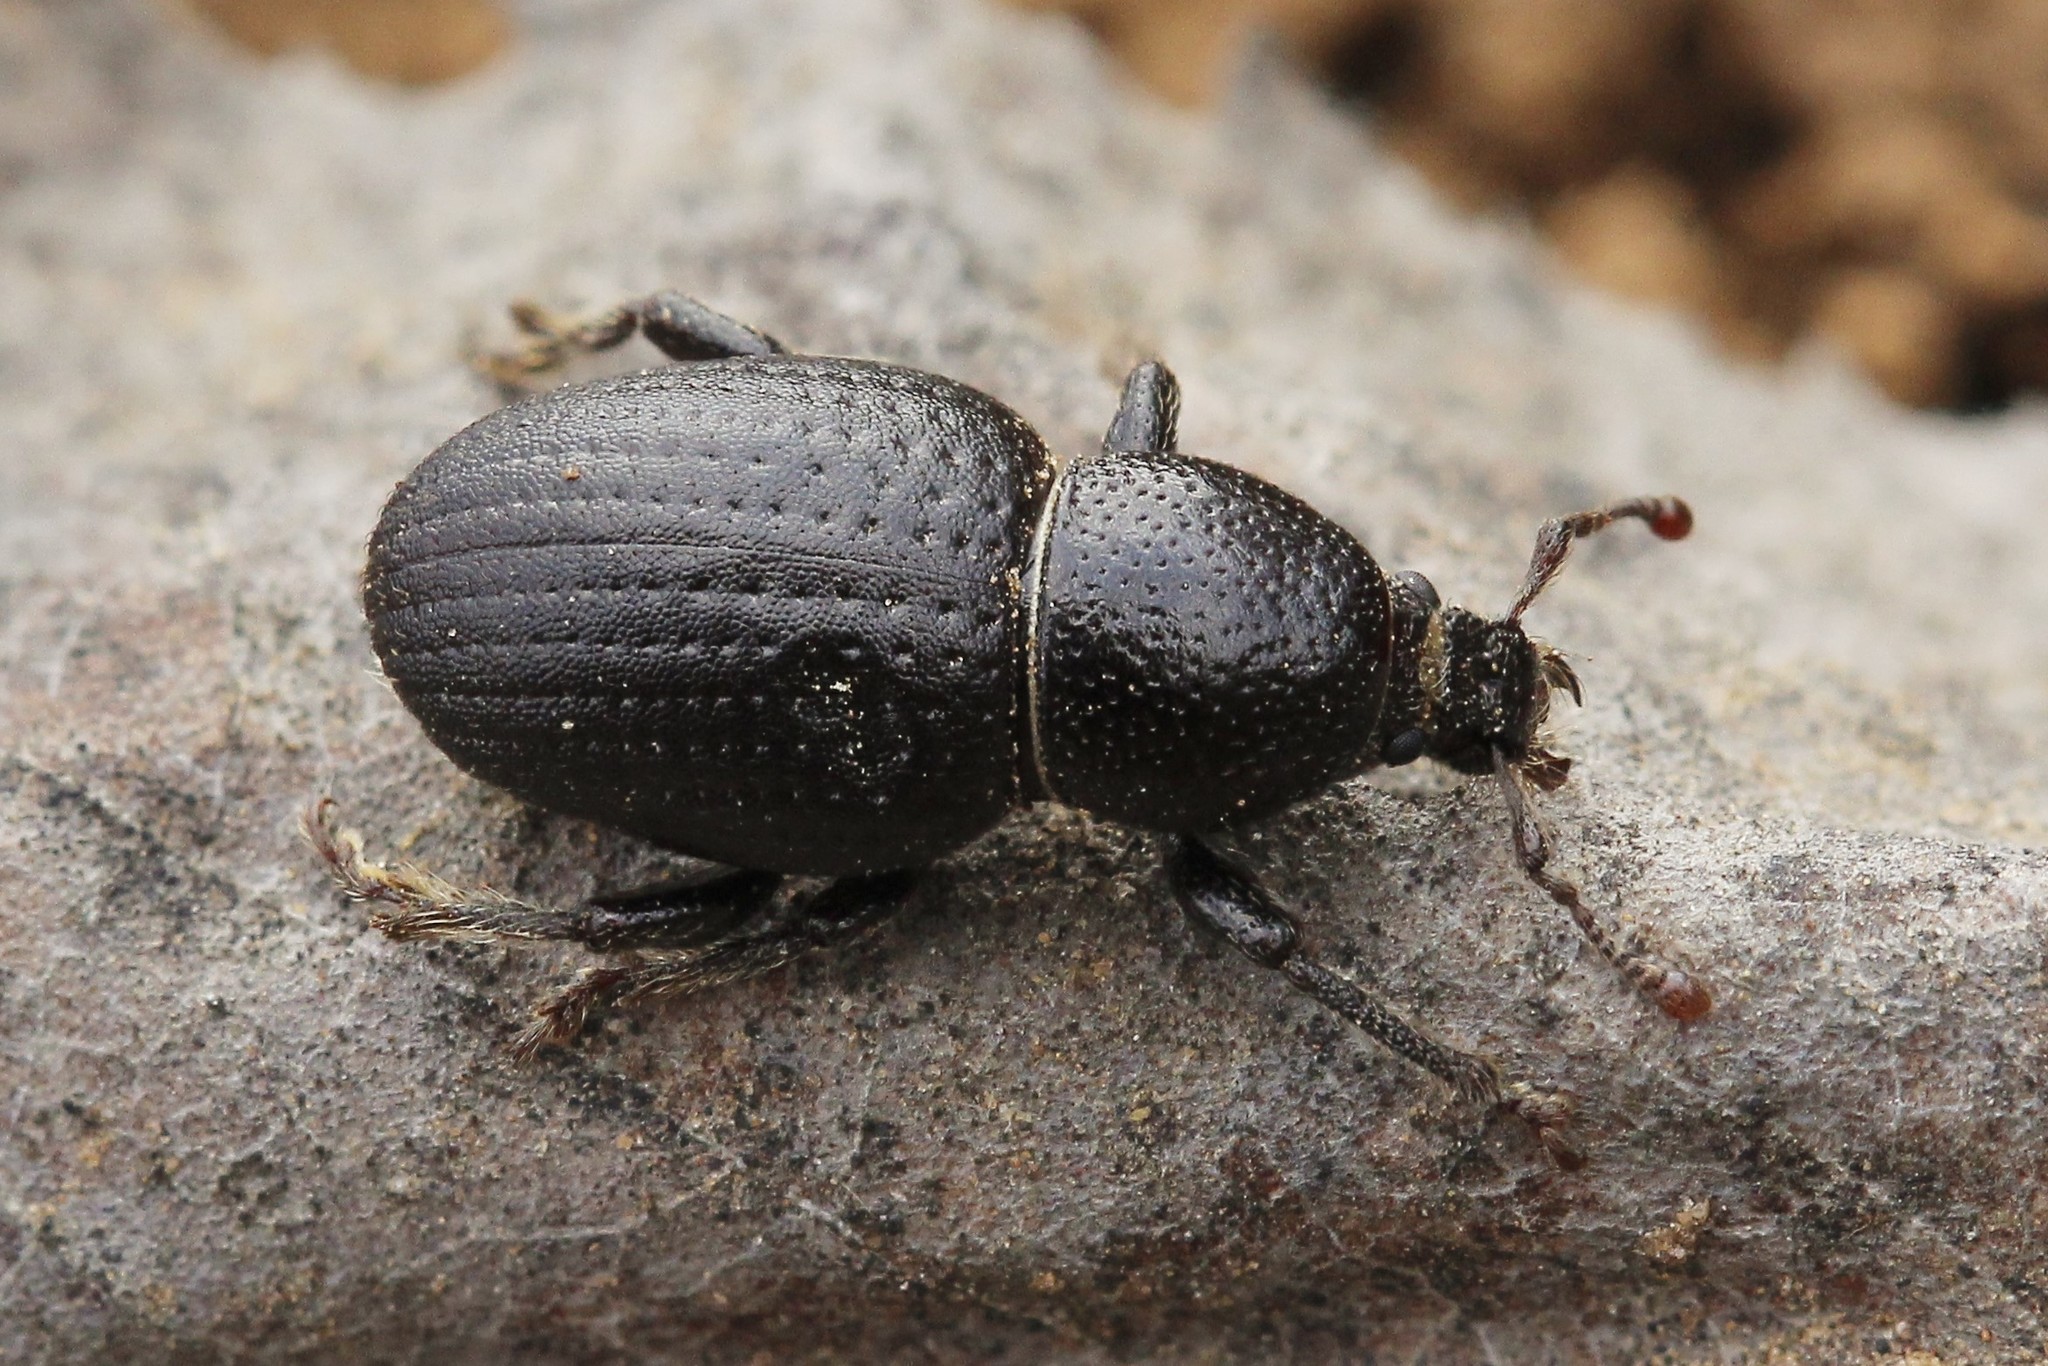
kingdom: Animalia
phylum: Arthropoda
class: Insecta
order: Coleoptera
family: Curculionidae
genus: Psallidium
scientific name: Psallidium maxillosum
